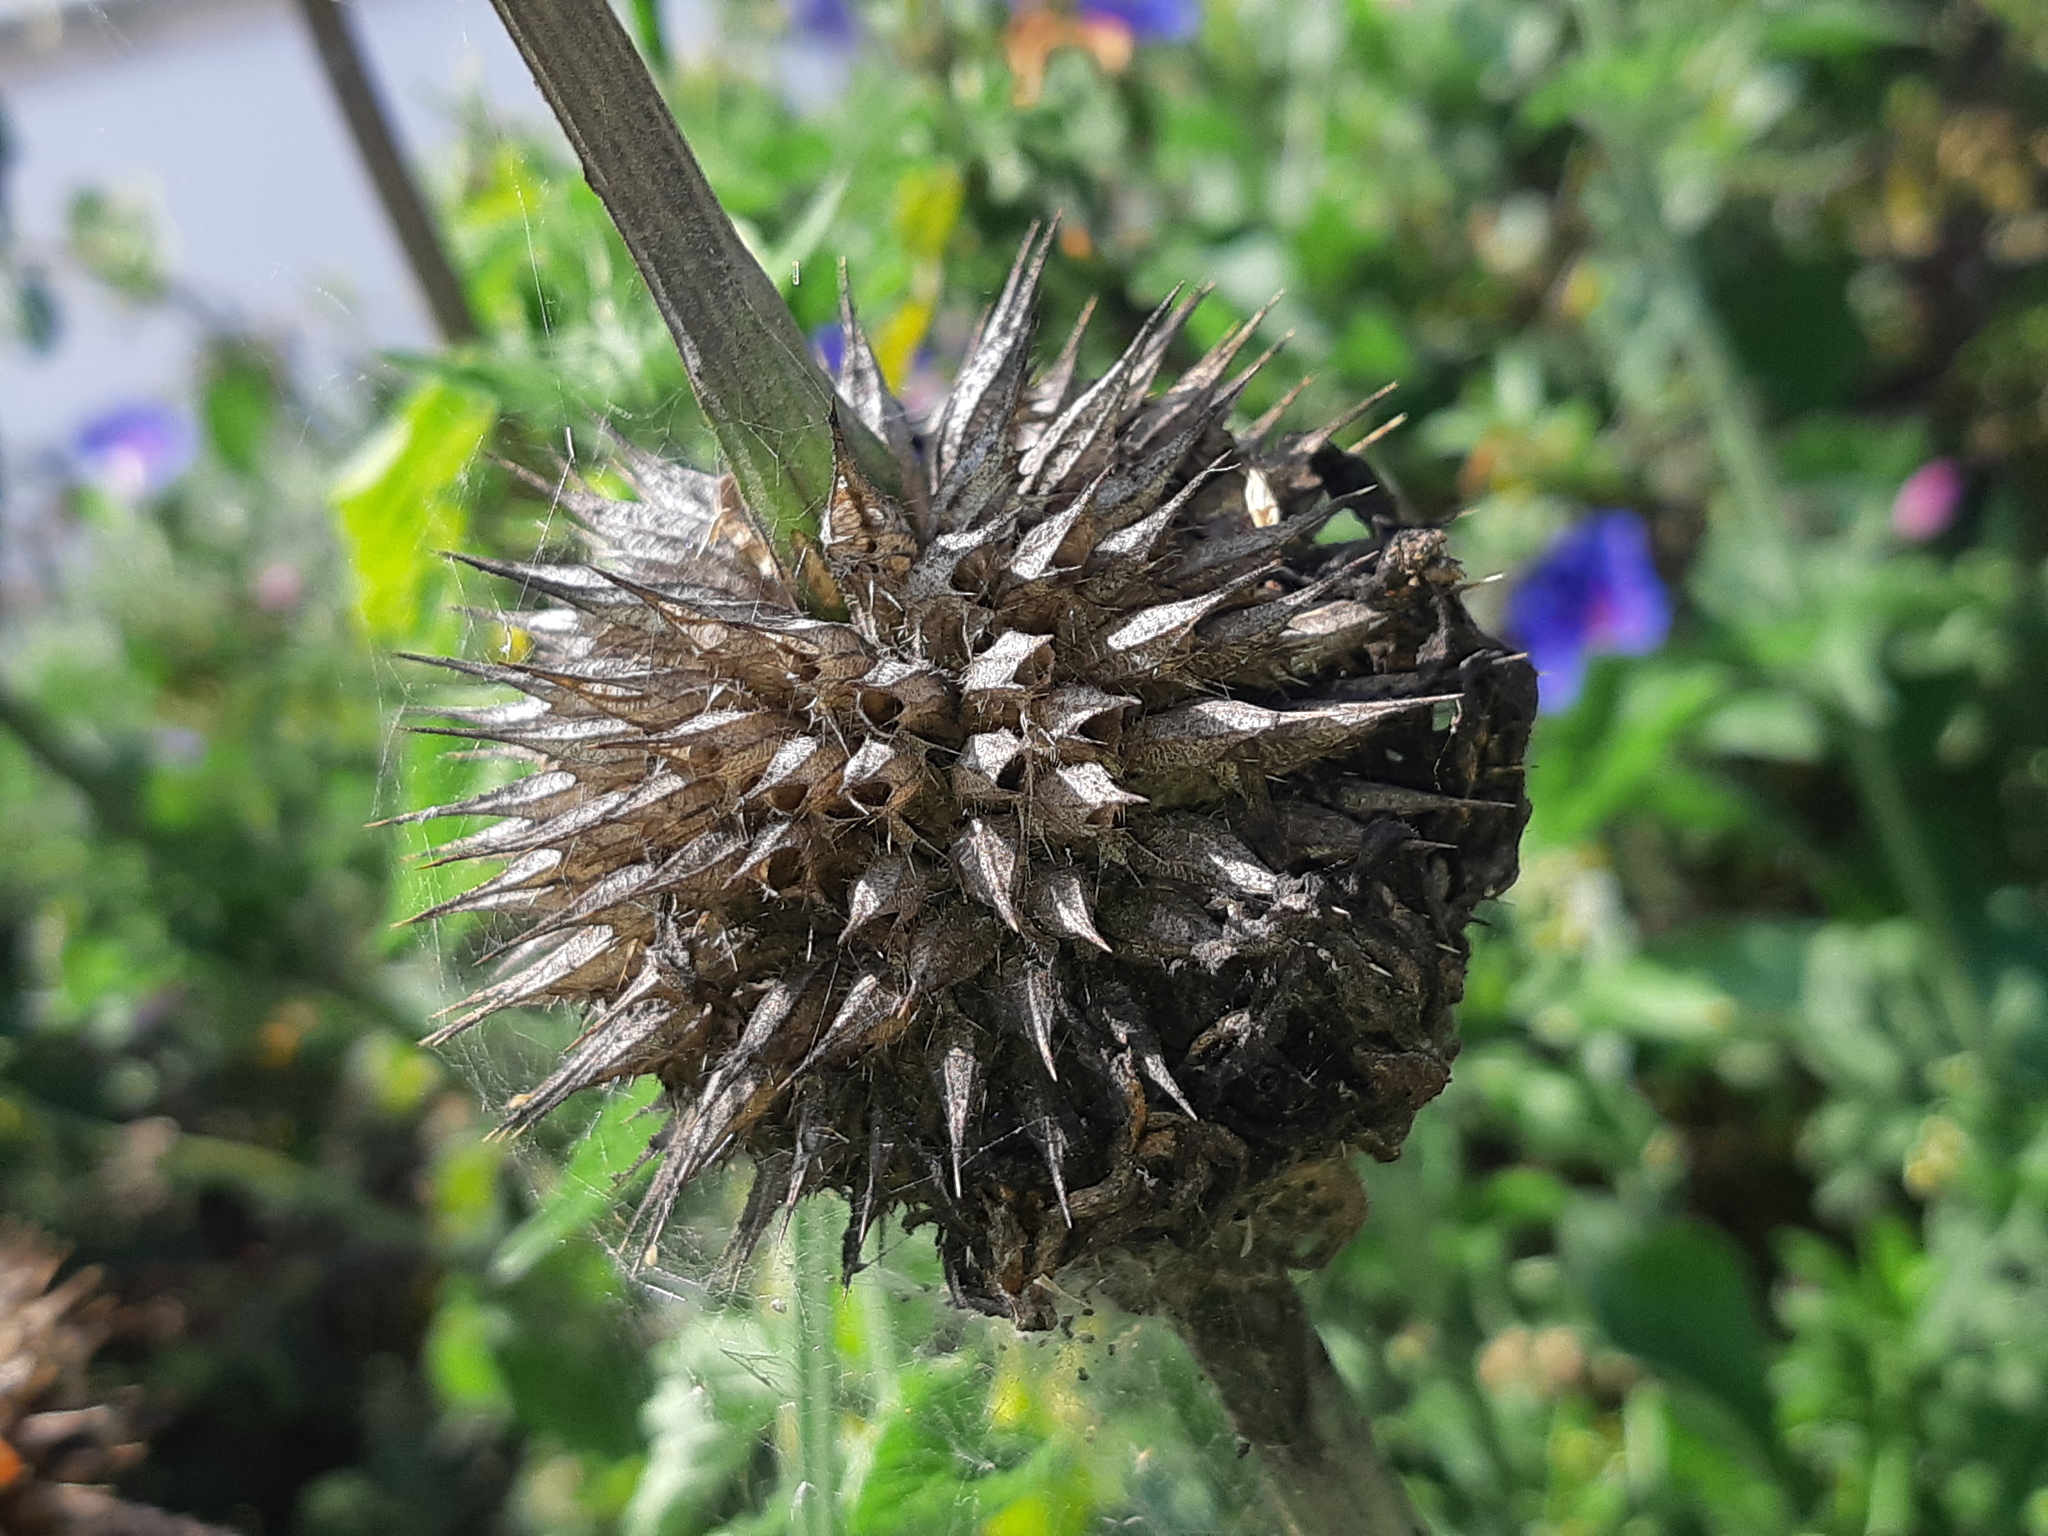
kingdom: Plantae
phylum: Tracheophyta
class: Magnoliopsida
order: Lamiales
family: Lamiaceae
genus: Leonotis
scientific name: Leonotis nepetifolia
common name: Christmas candlestick
